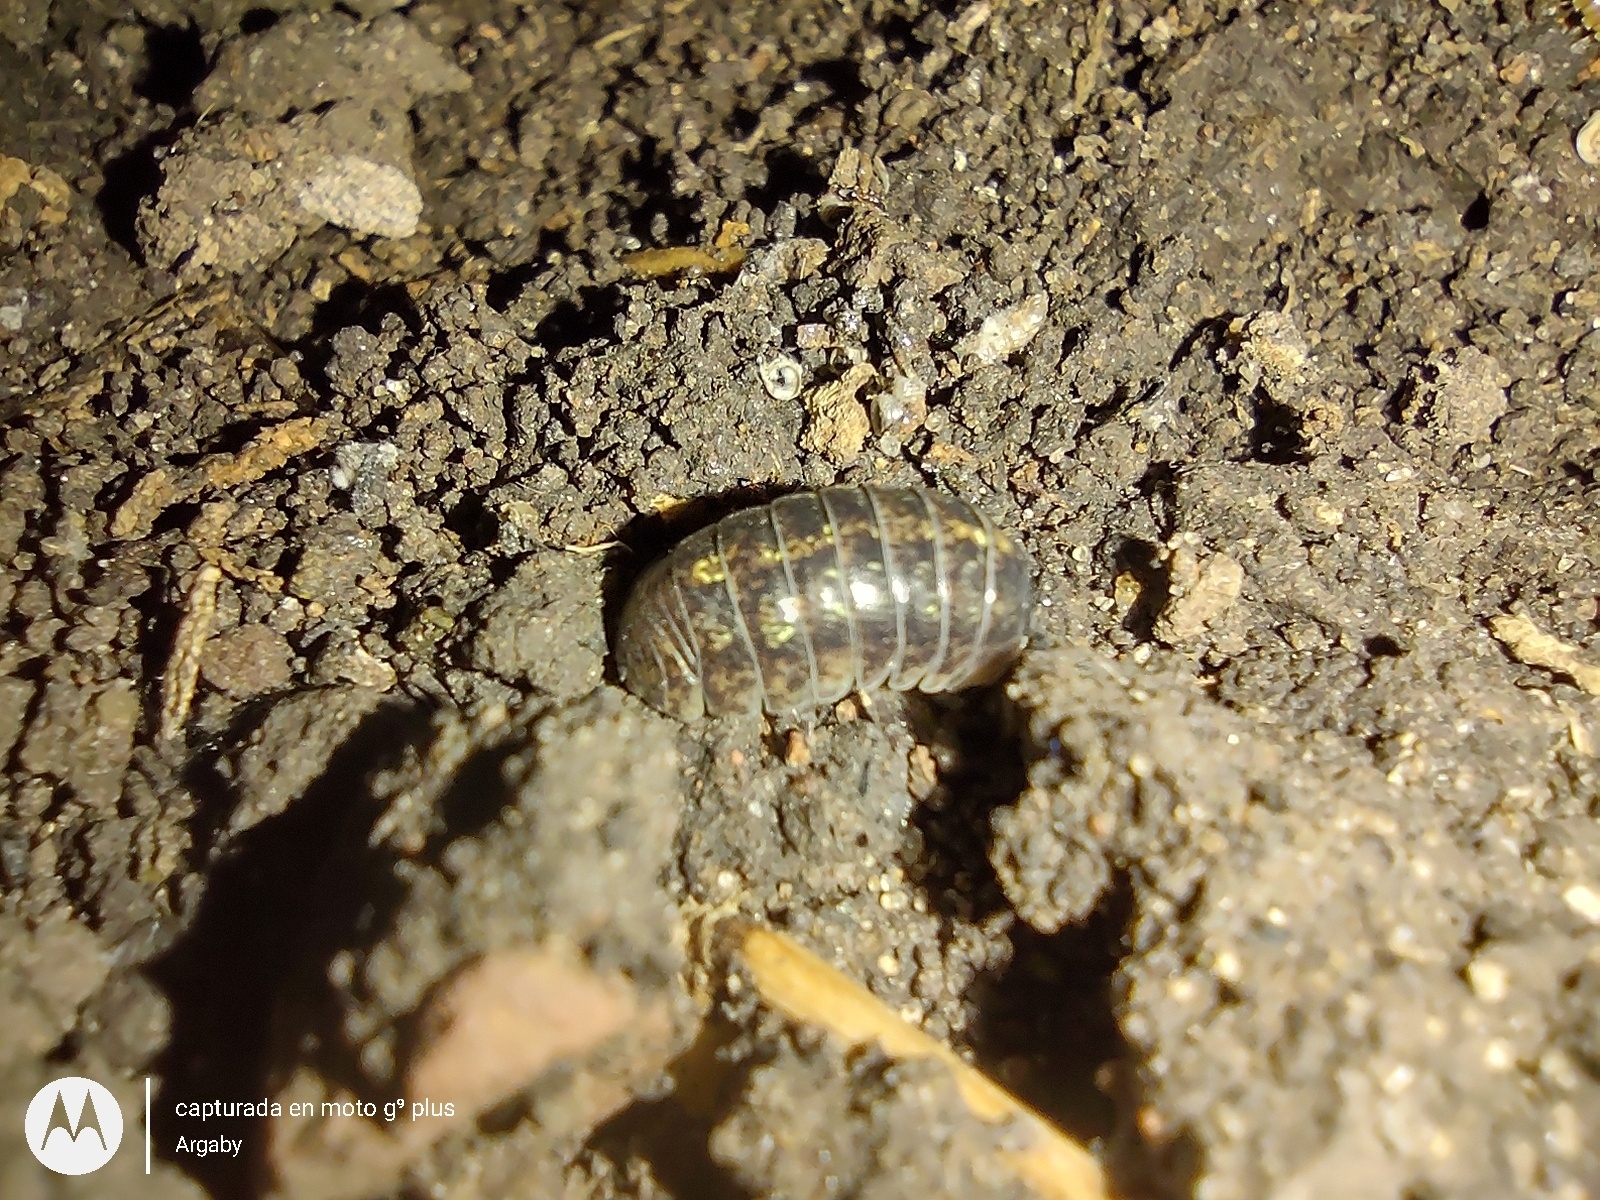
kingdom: Animalia
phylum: Arthropoda
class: Malacostraca
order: Isopoda
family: Armadillidiidae
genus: Armadillidium
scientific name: Armadillidium vulgare
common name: Common pill woodlouse
